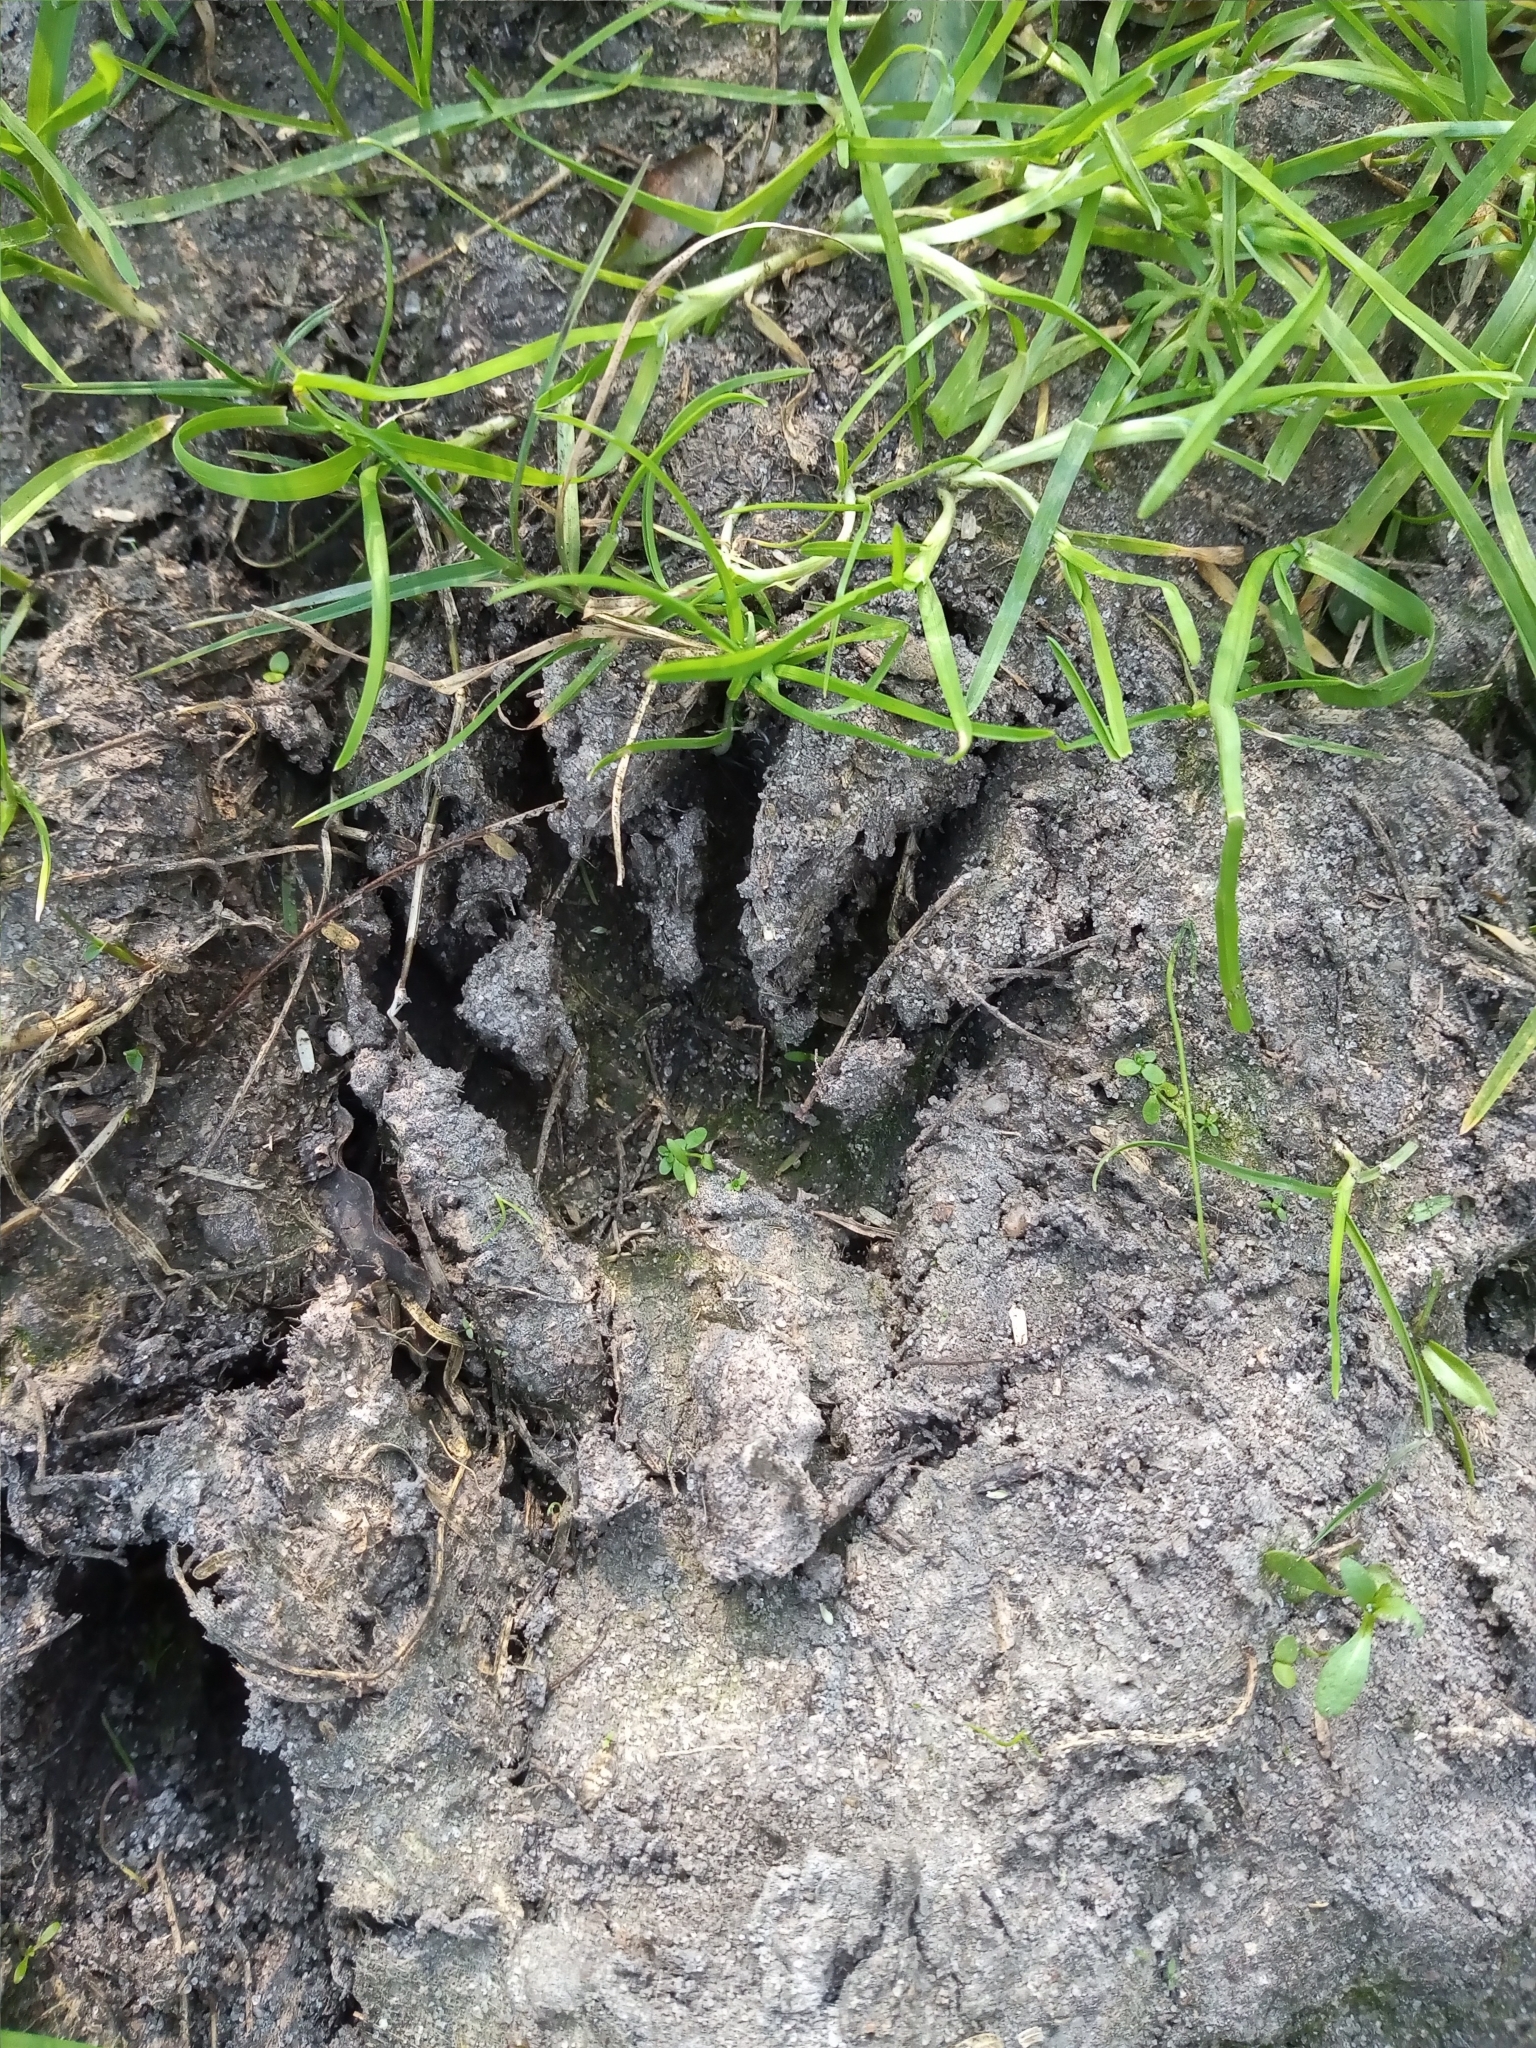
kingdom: Animalia
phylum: Chordata
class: Mammalia
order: Carnivora
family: Procyonidae
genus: Procyon
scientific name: Procyon cancrivorus
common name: Crab-eating raccoon
